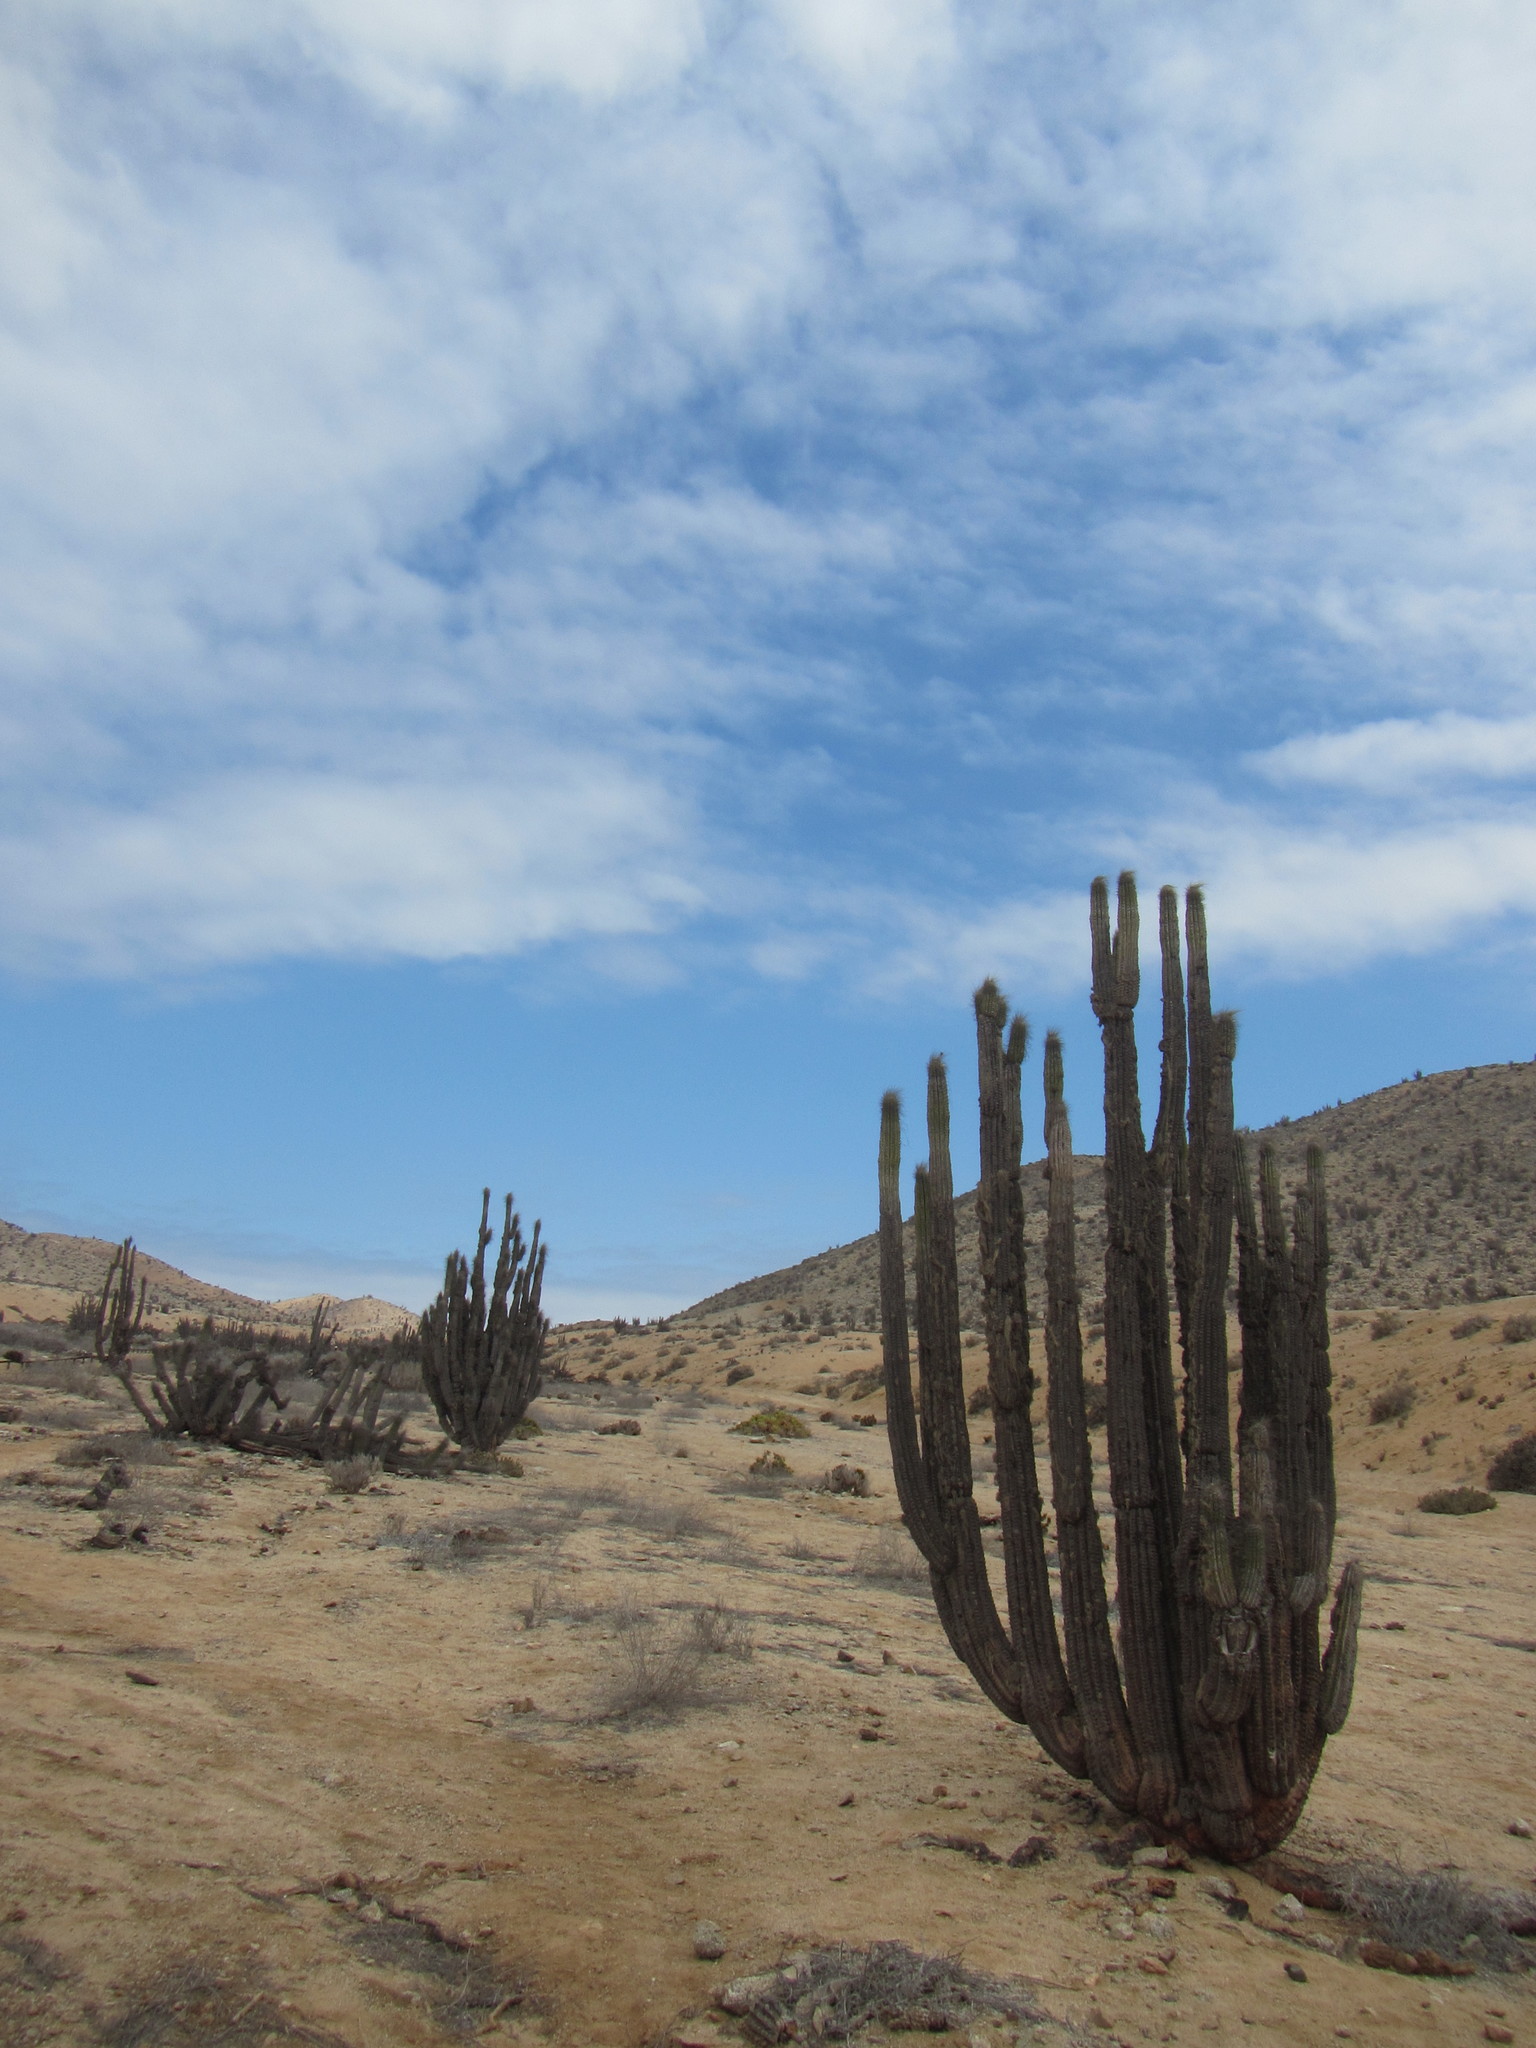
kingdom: Plantae
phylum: Tracheophyta
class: Magnoliopsida
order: Caryophyllales
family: Cactaceae
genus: Eulychnia
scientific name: Eulychnia iquiquensis
